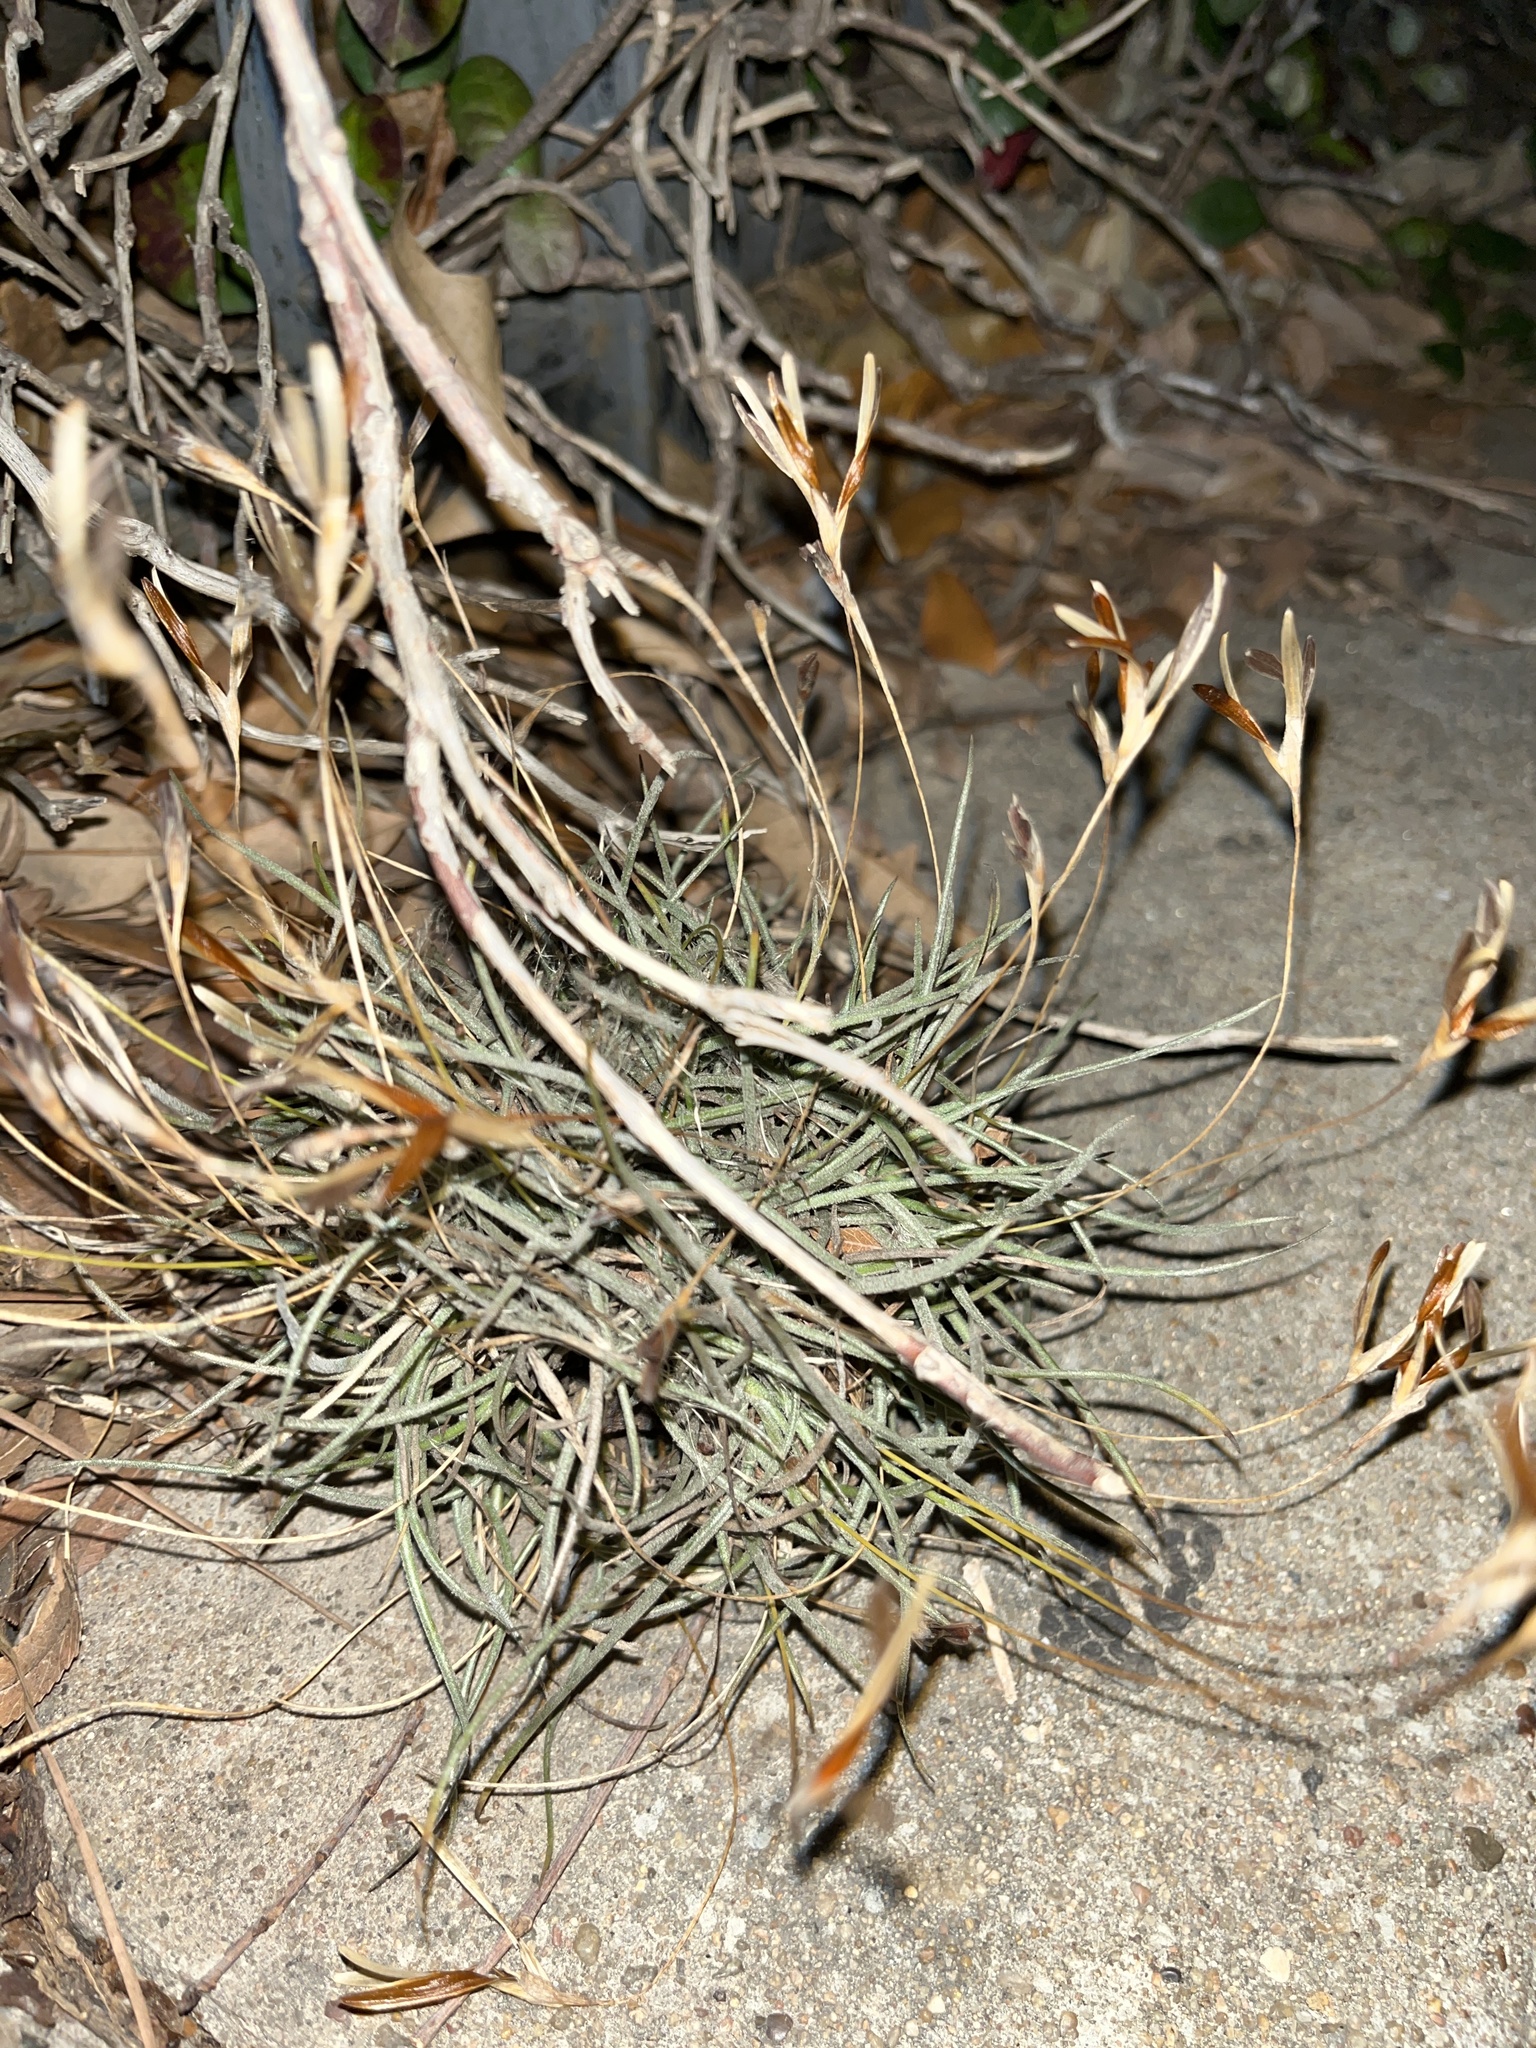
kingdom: Plantae
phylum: Tracheophyta
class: Liliopsida
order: Poales
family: Bromeliaceae
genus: Tillandsia
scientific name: Tillandsia recurvata
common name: Small ballmoss
